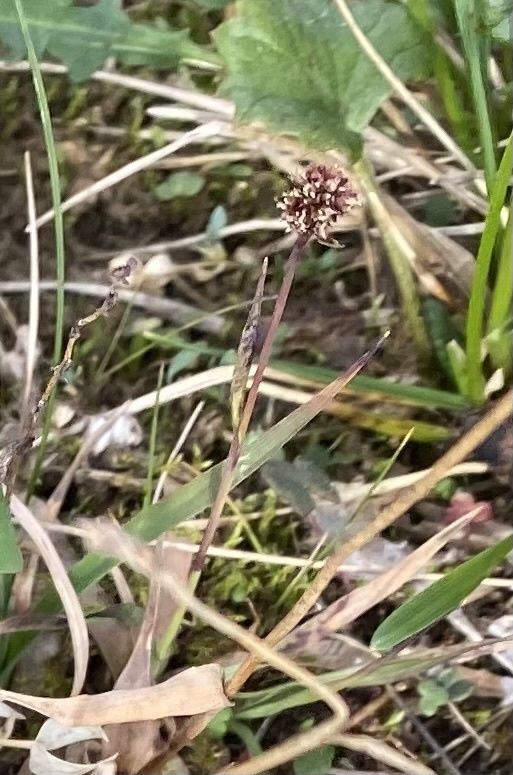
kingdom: Plantae
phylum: Tracheophyta
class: Liliopsida
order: Poales
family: Juncaceae
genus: Luzula
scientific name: Luzula nivalis
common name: Arctic woodrush
